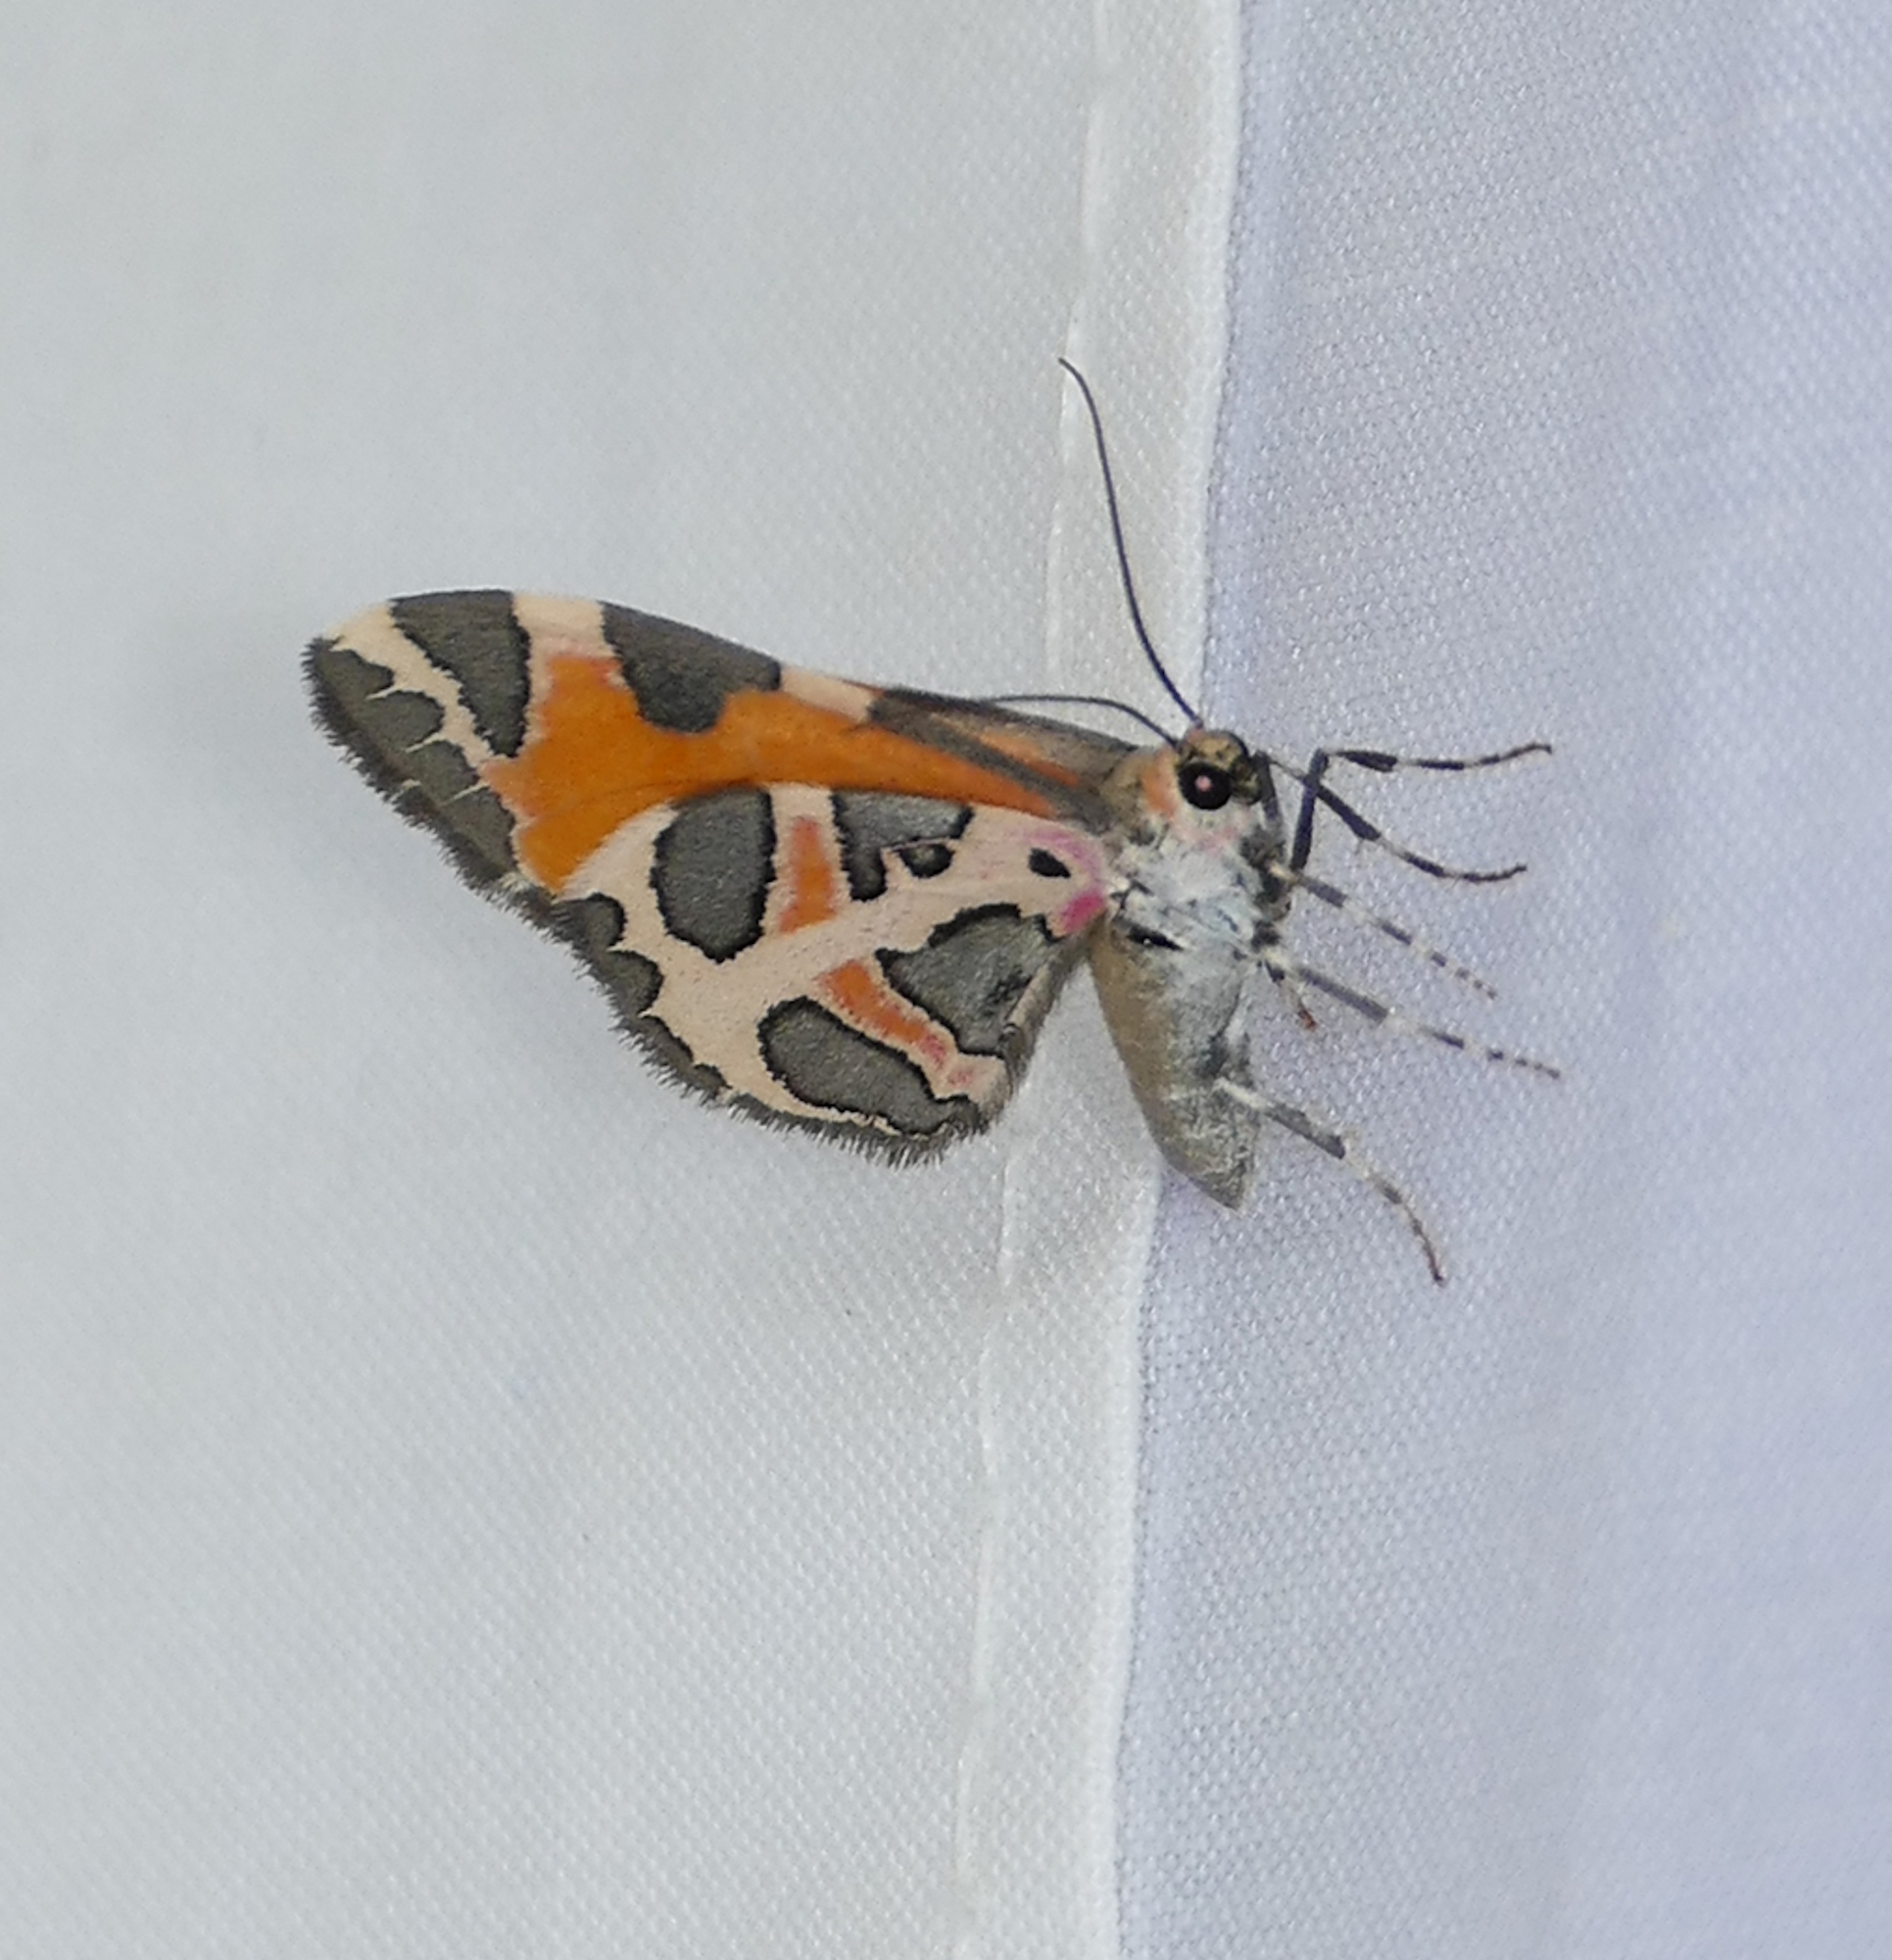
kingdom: Animalia
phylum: Arthropoda
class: Insecta
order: Lepidoptera
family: Geometridae
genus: Stamnodes
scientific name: Stamnodes deceptiva
